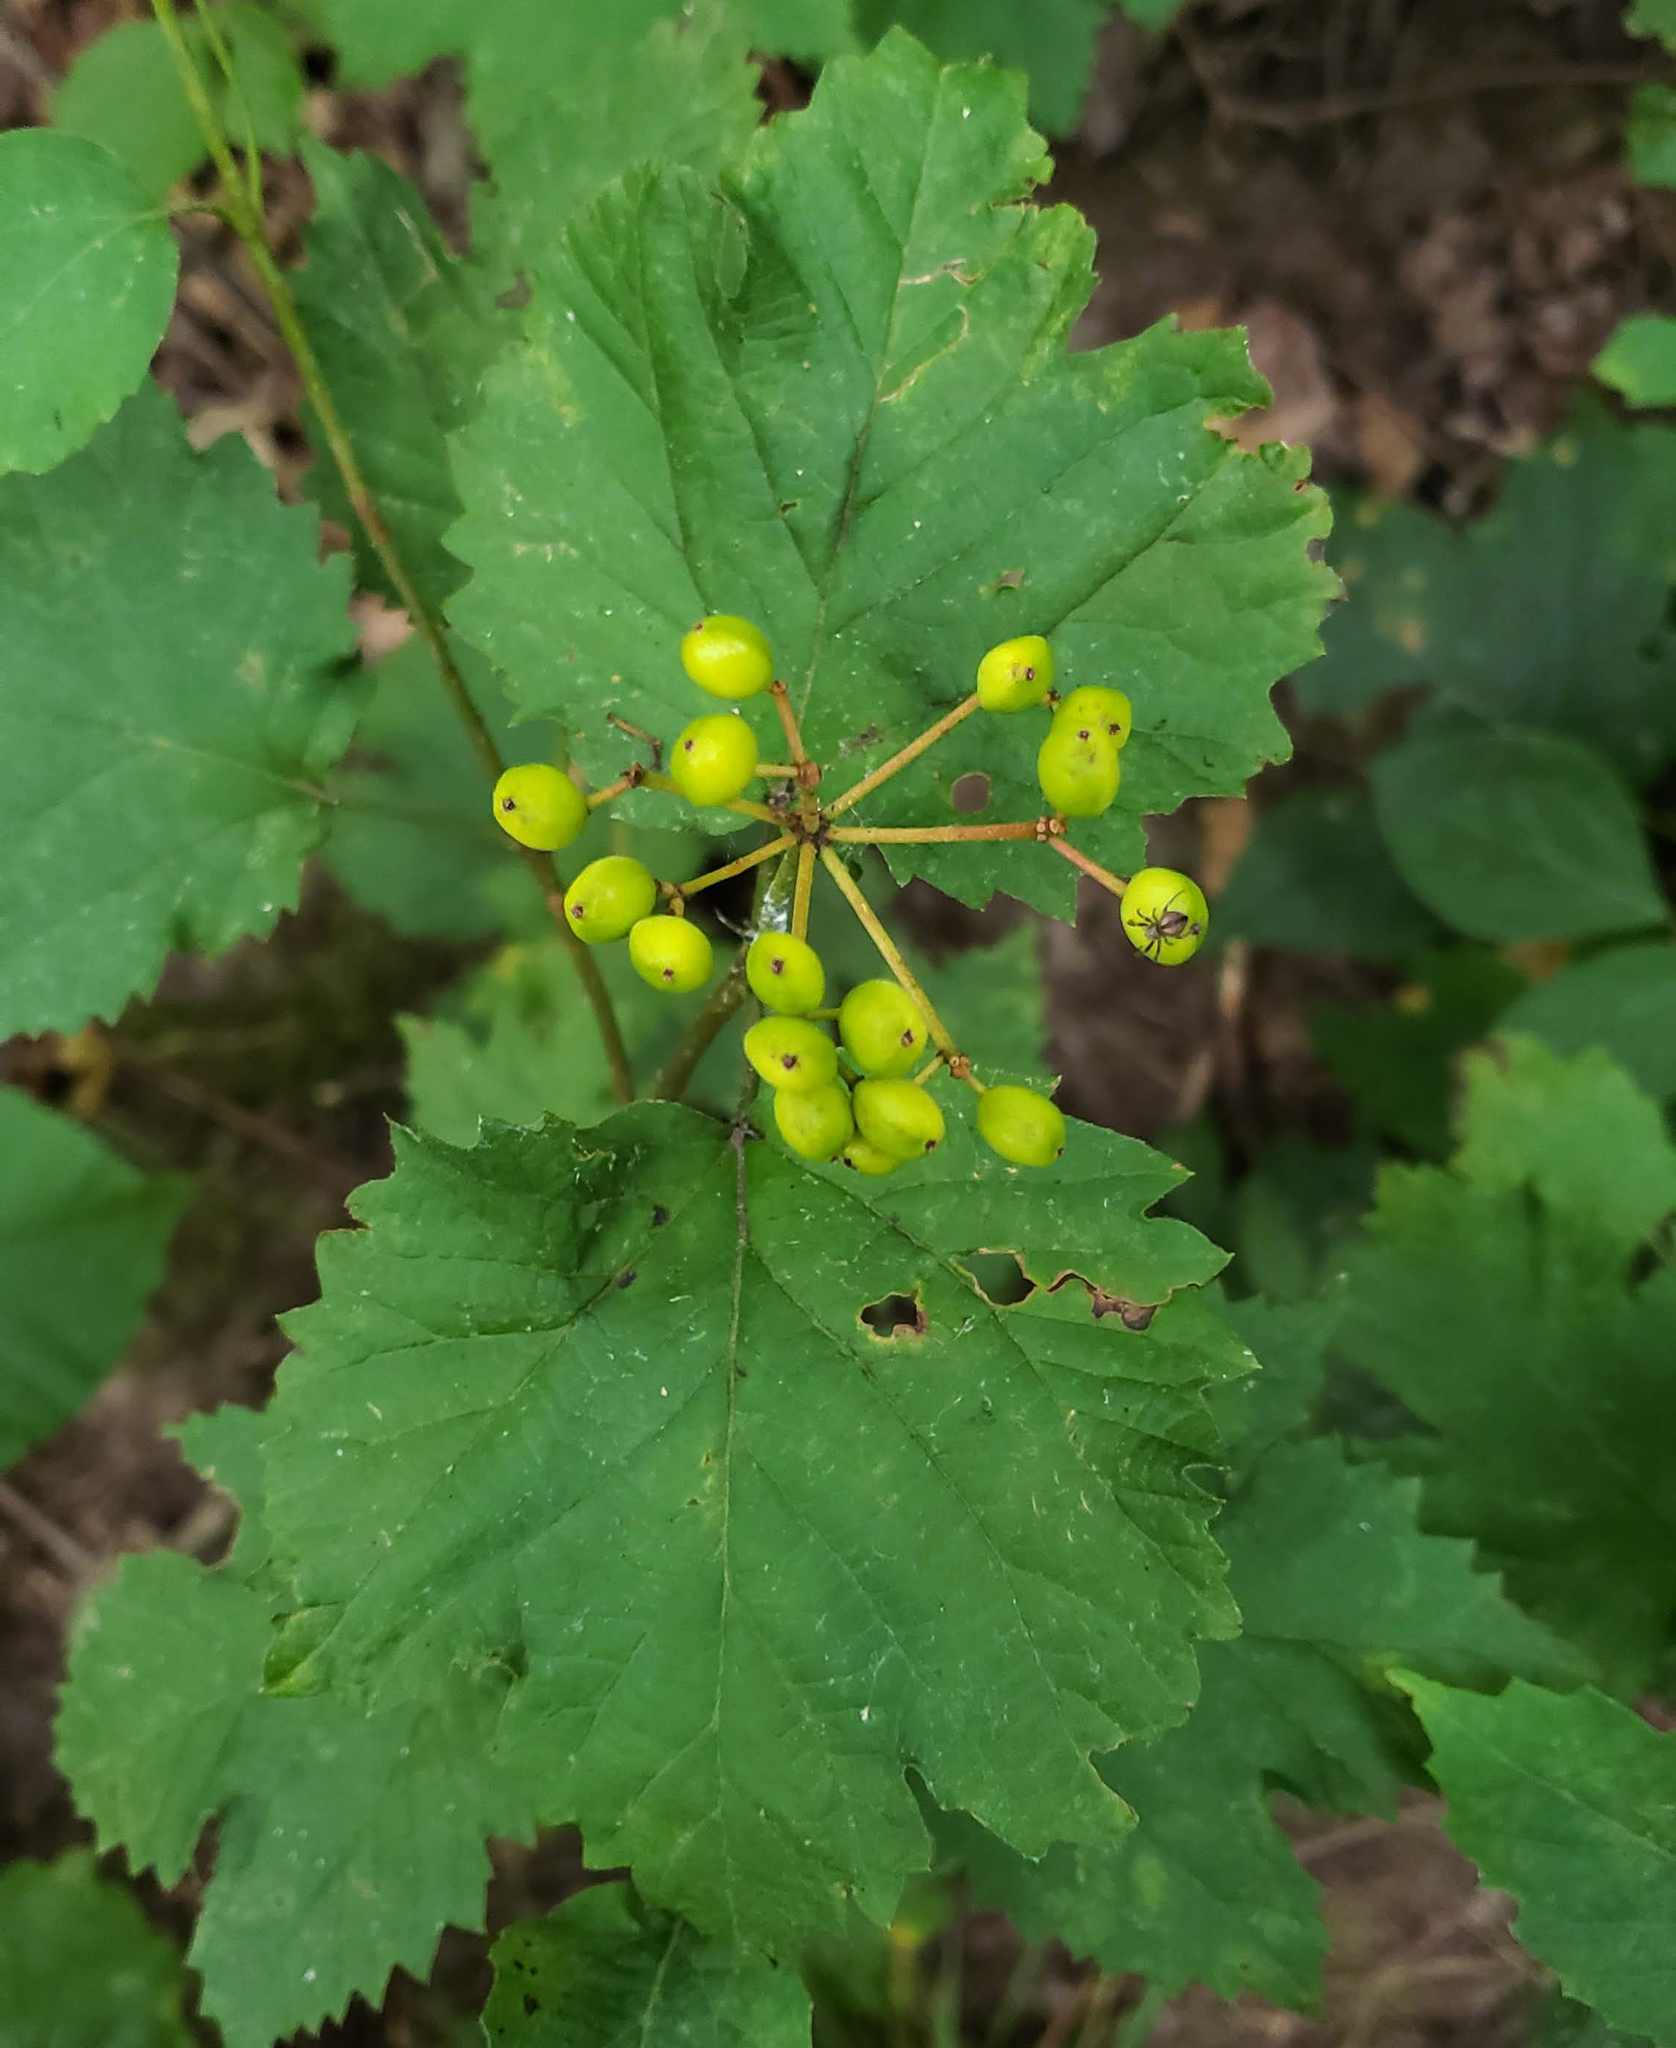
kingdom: Plantae
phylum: Tracheophyta
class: Magnoliopsida
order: Dipsacales
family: Viburnaceae
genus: Viburnum
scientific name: Viburnum acerifolium
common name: Dockmackie
